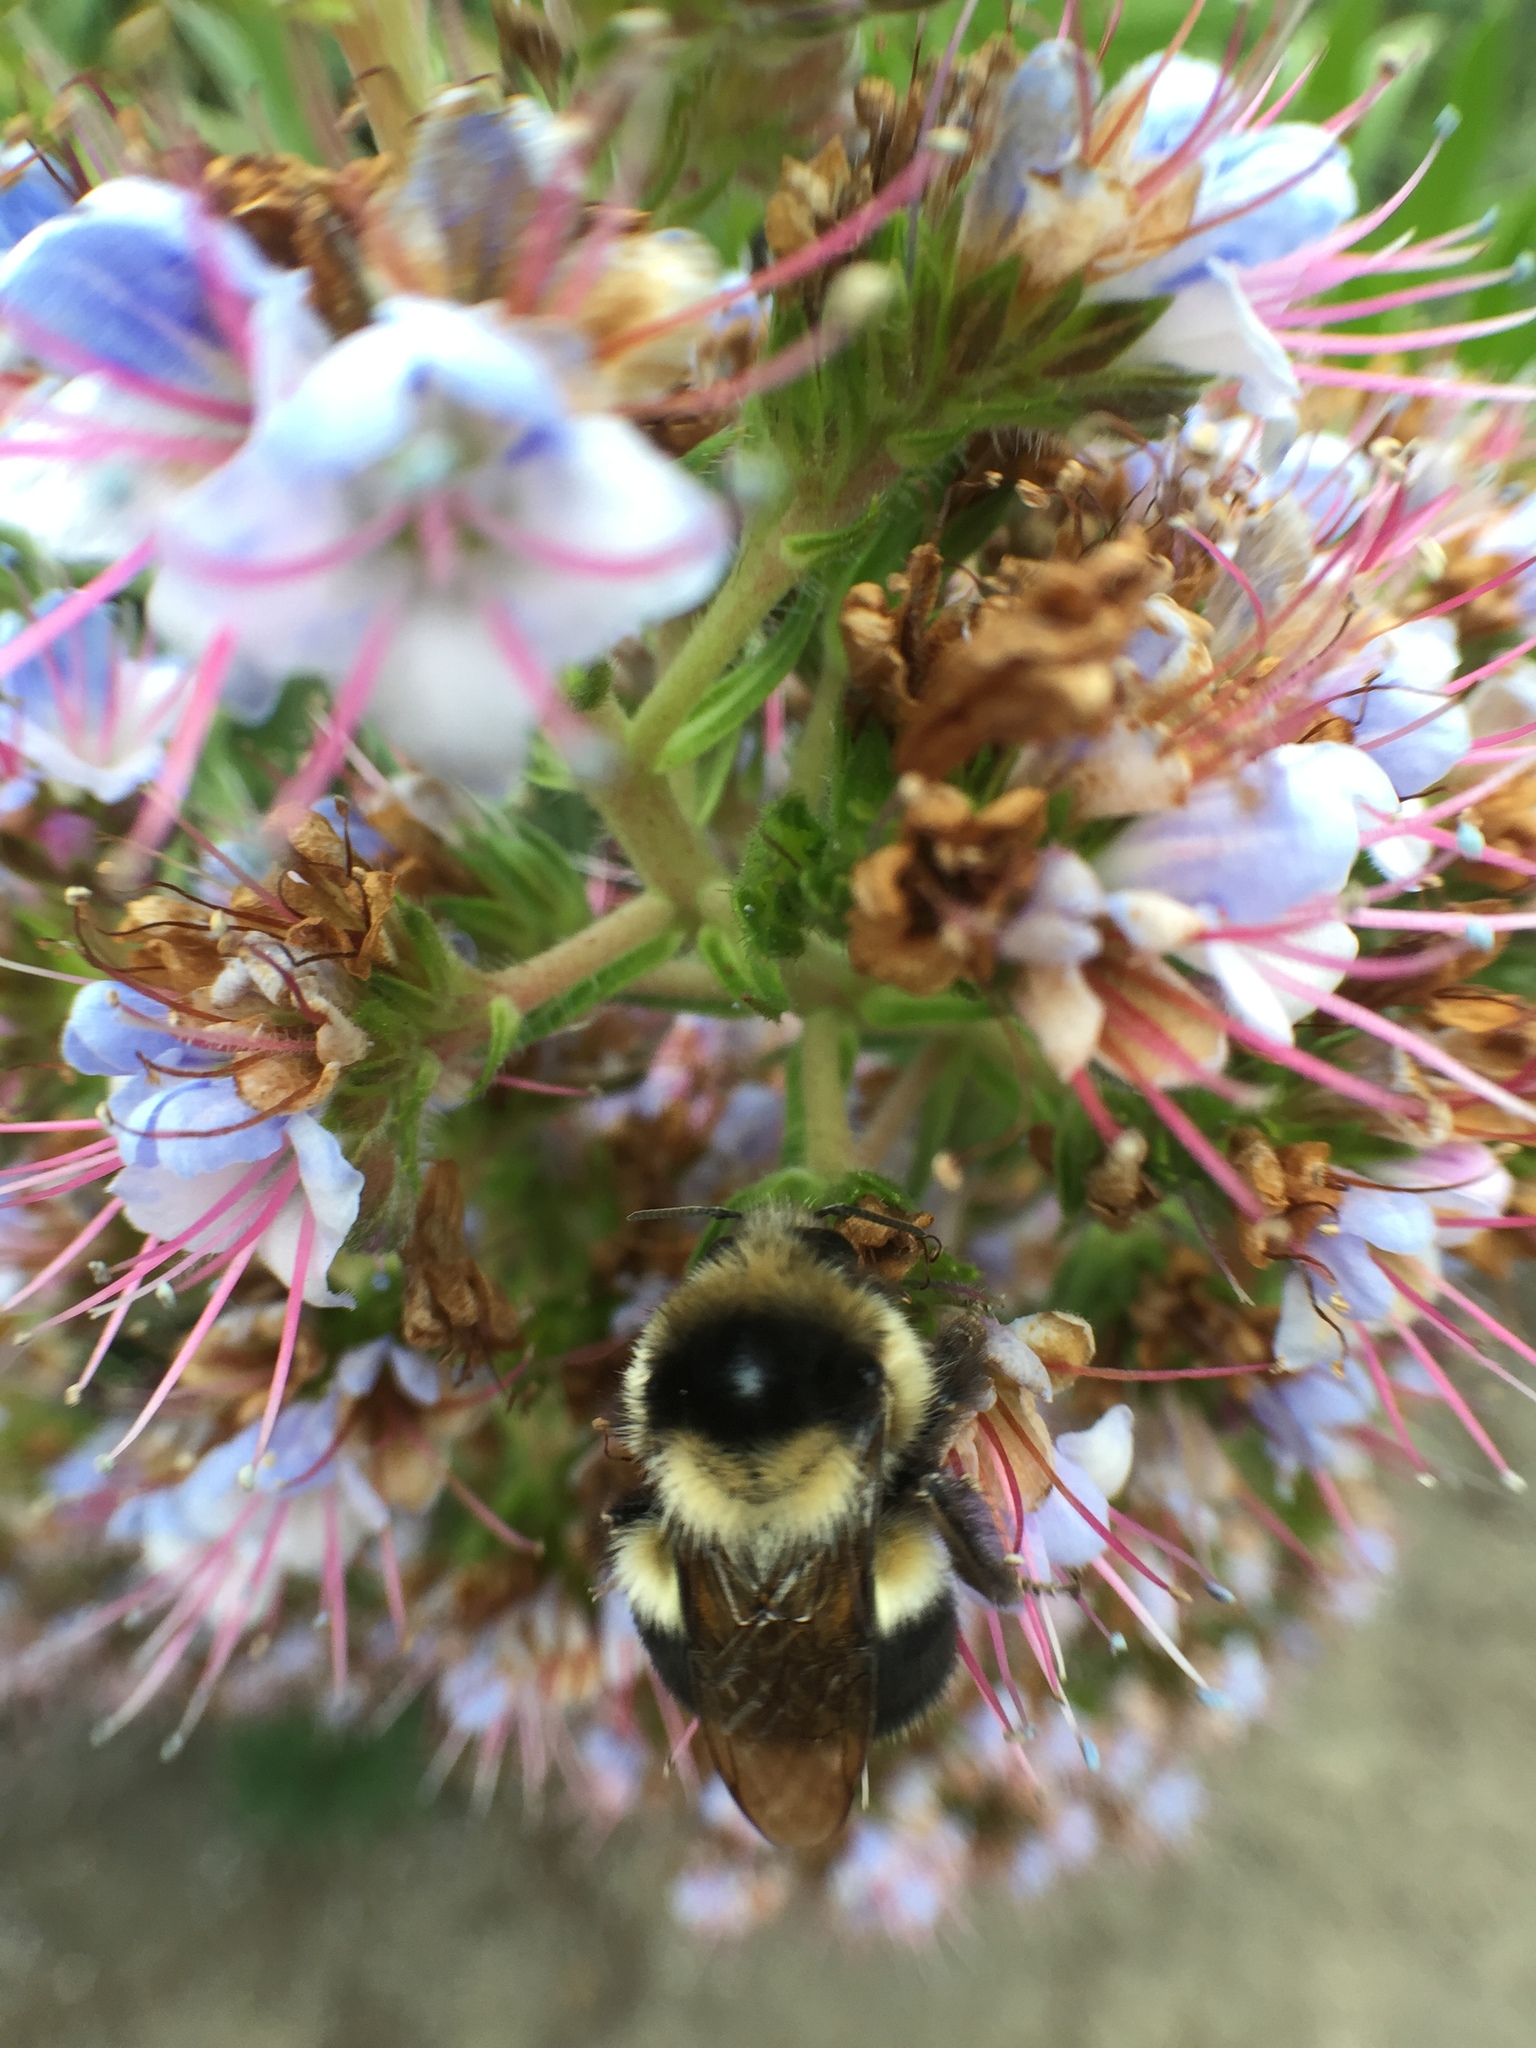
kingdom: Animalia
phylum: Arthropoda
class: Insecta
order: Hymenoptera
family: Apidae
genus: Bombus
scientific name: Bombus melanopygus
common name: Black tail bumble bee
